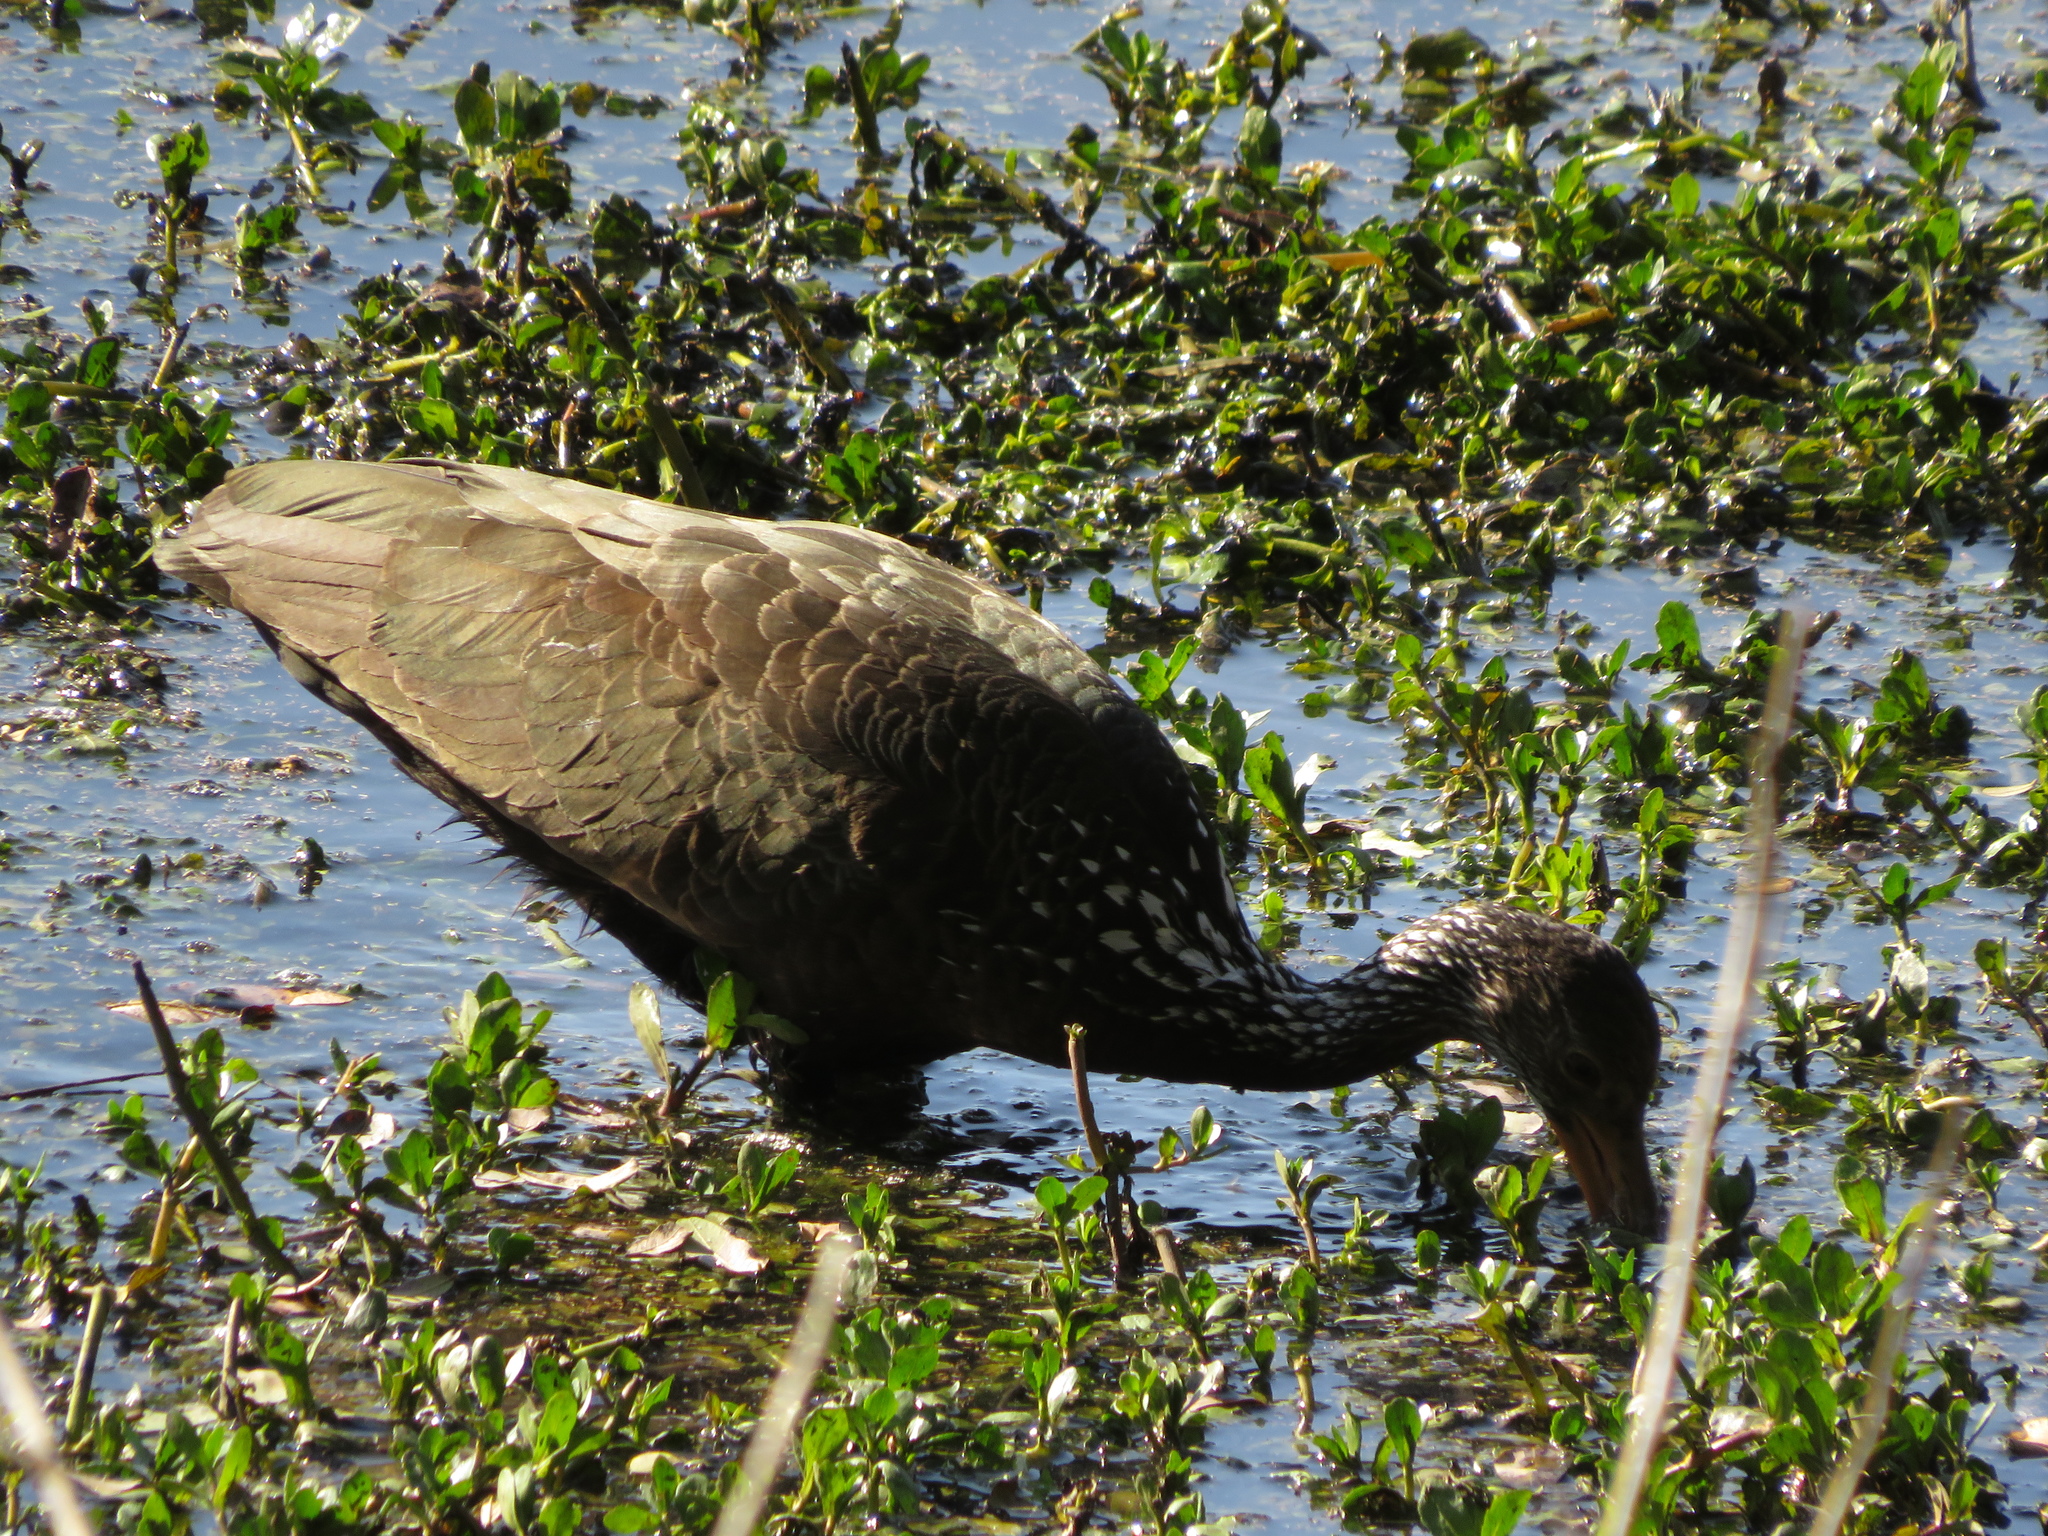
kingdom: Animalia
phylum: Chordata
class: Aves
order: Gruiformes
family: Aramidae
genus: Aramus
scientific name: Aramus guarauna
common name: Limpkin
